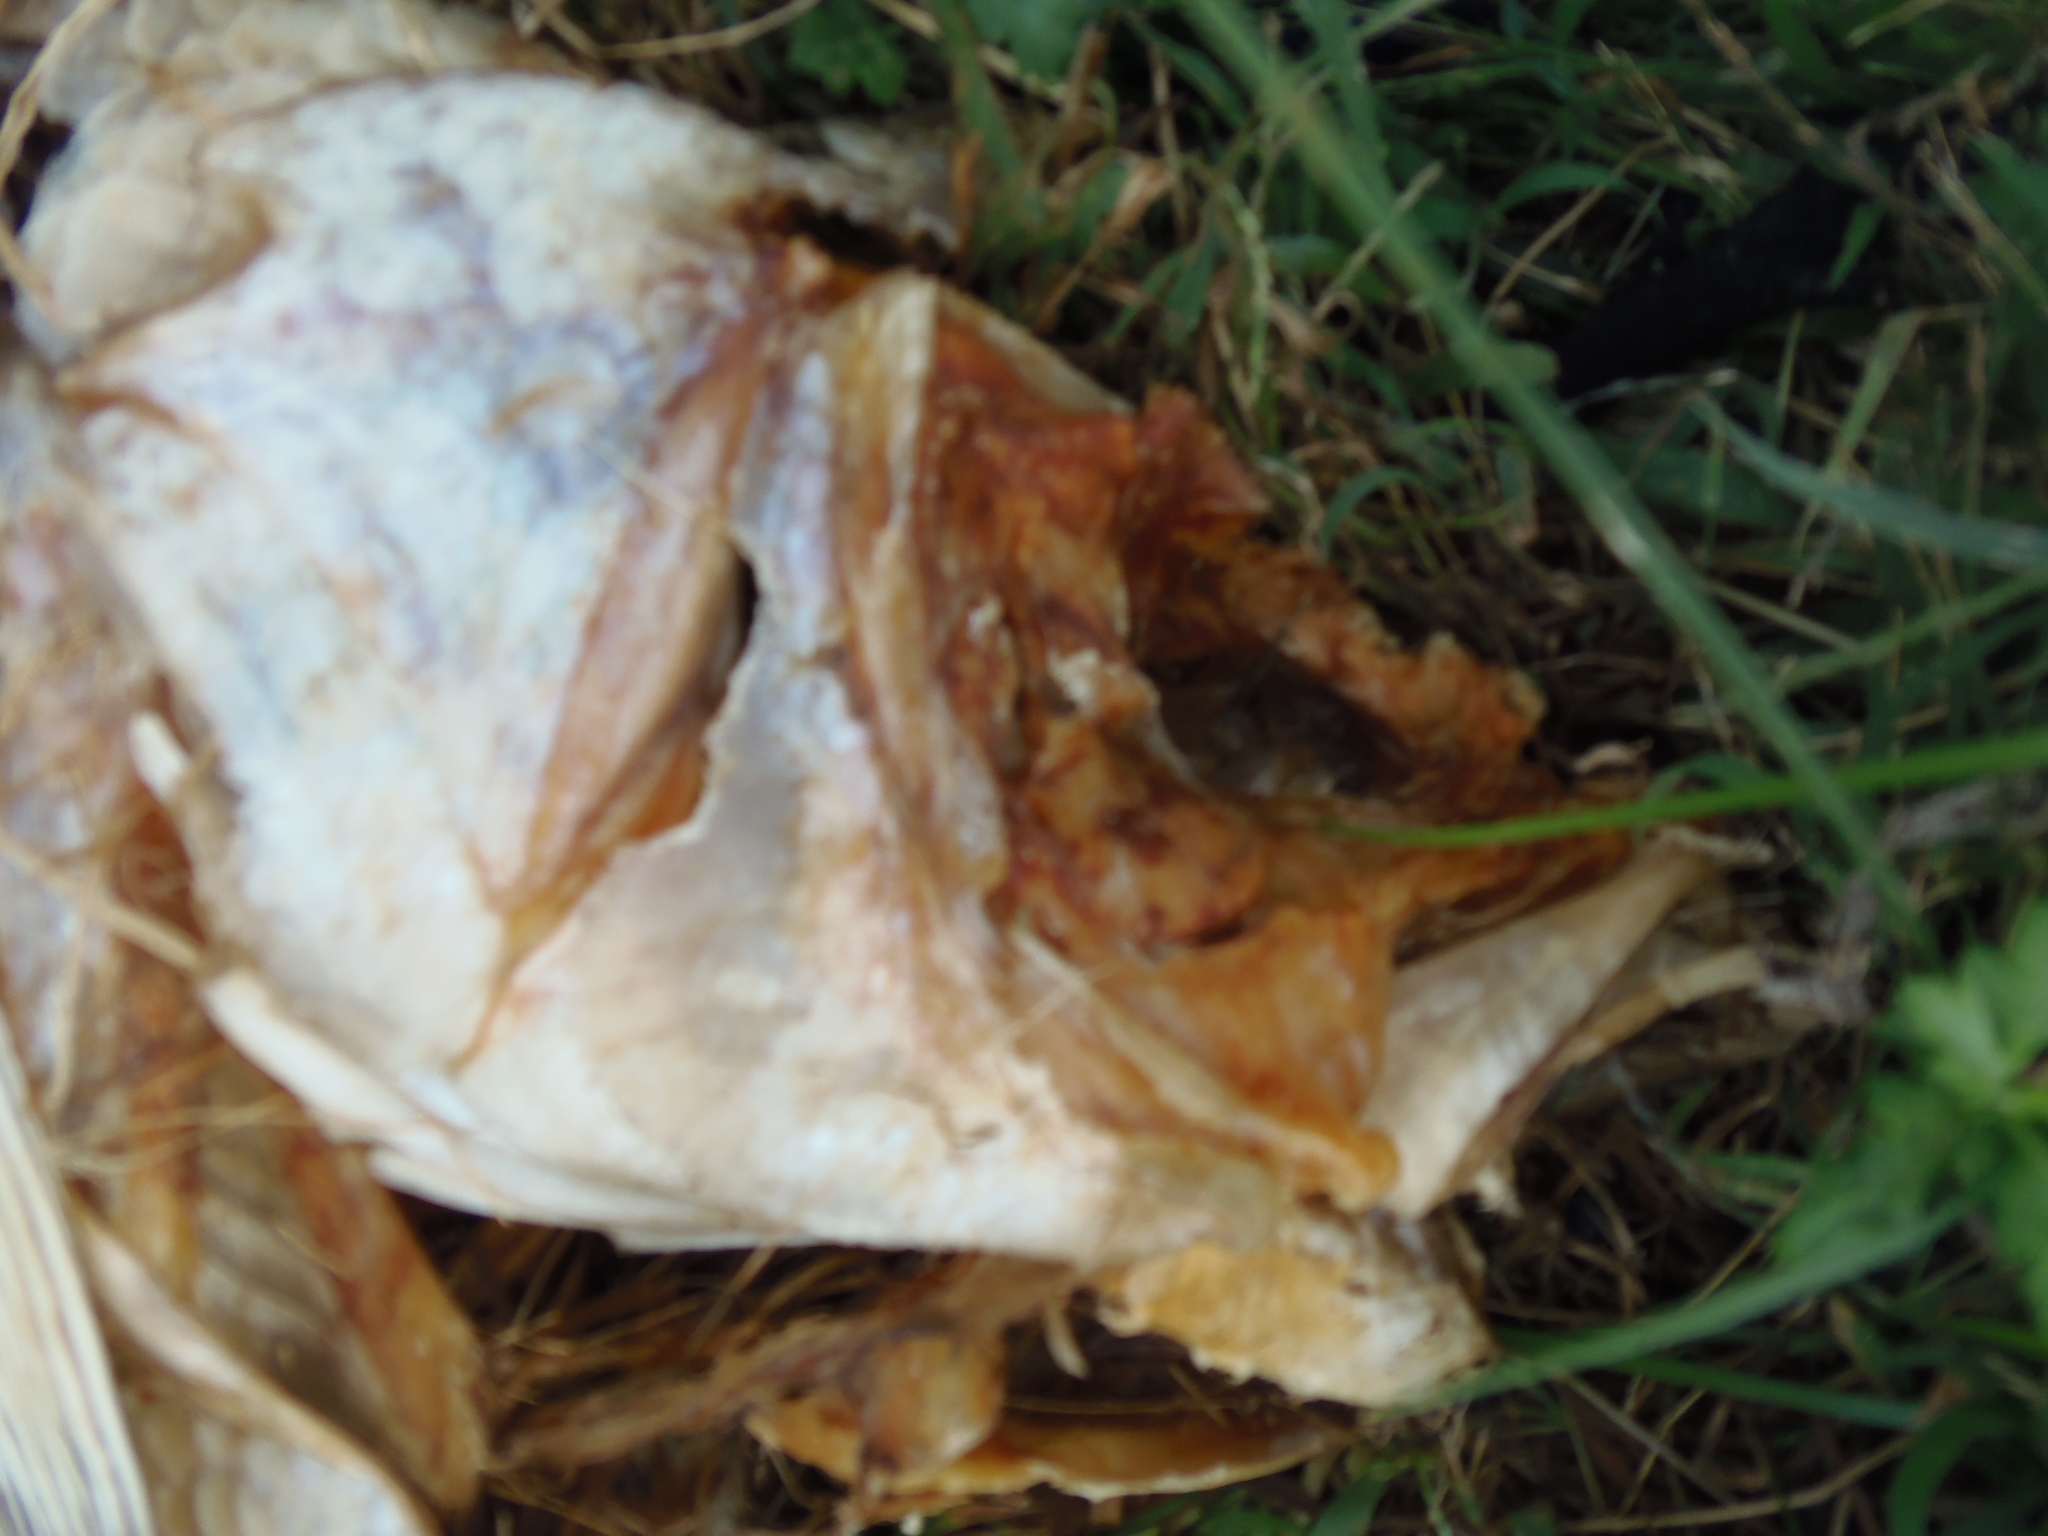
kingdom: Animalia
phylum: Chordata
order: Perciformes
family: Moronidae
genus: Morone
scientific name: Morone saxatilis
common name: Striped bass
